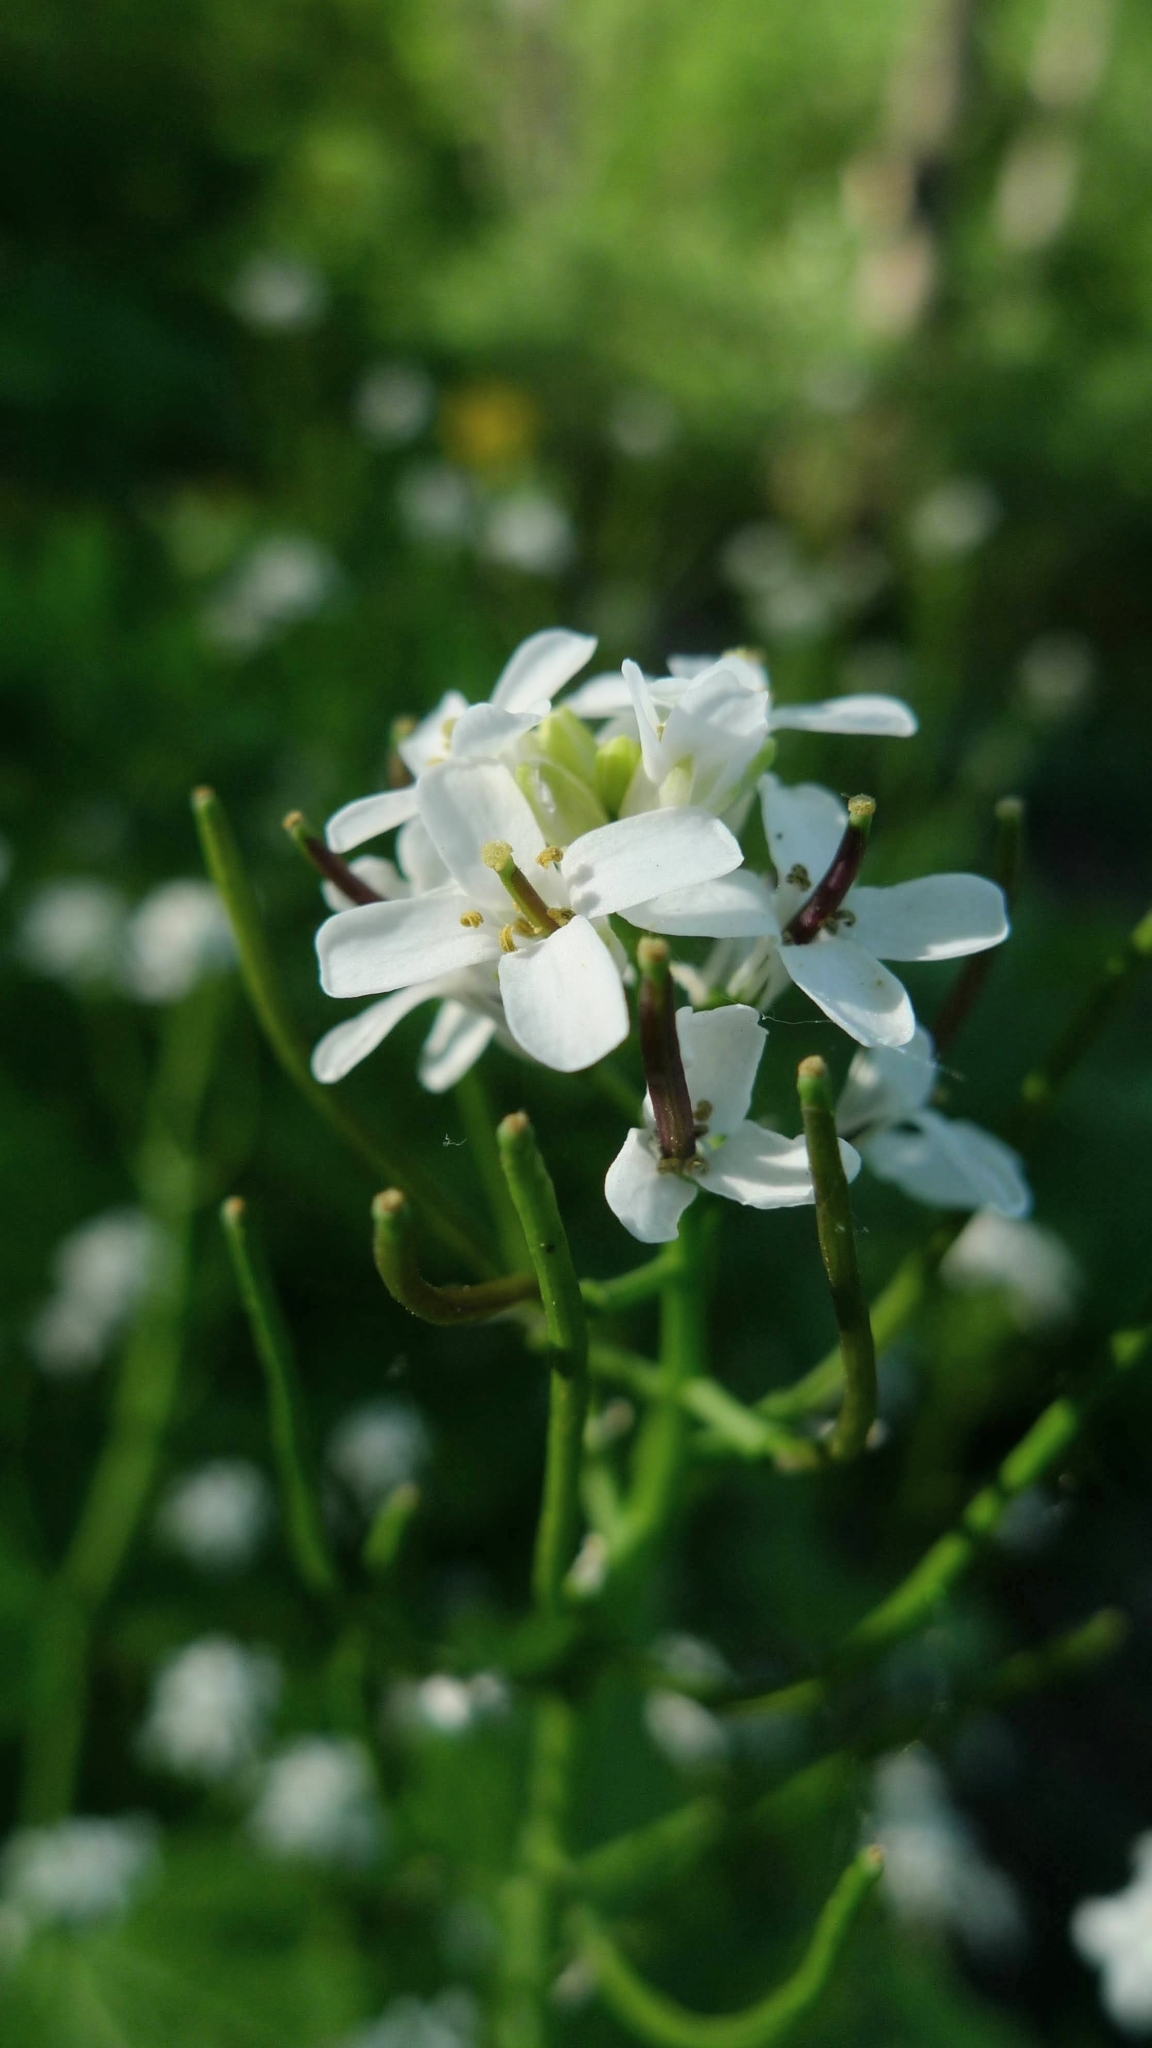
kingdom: Plantae
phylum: Tracheophyta
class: Magnoliopsida
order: Brassicales
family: Brassicaceae
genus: Alliaria
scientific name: Alliaria petiolata
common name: Garlic mustard
